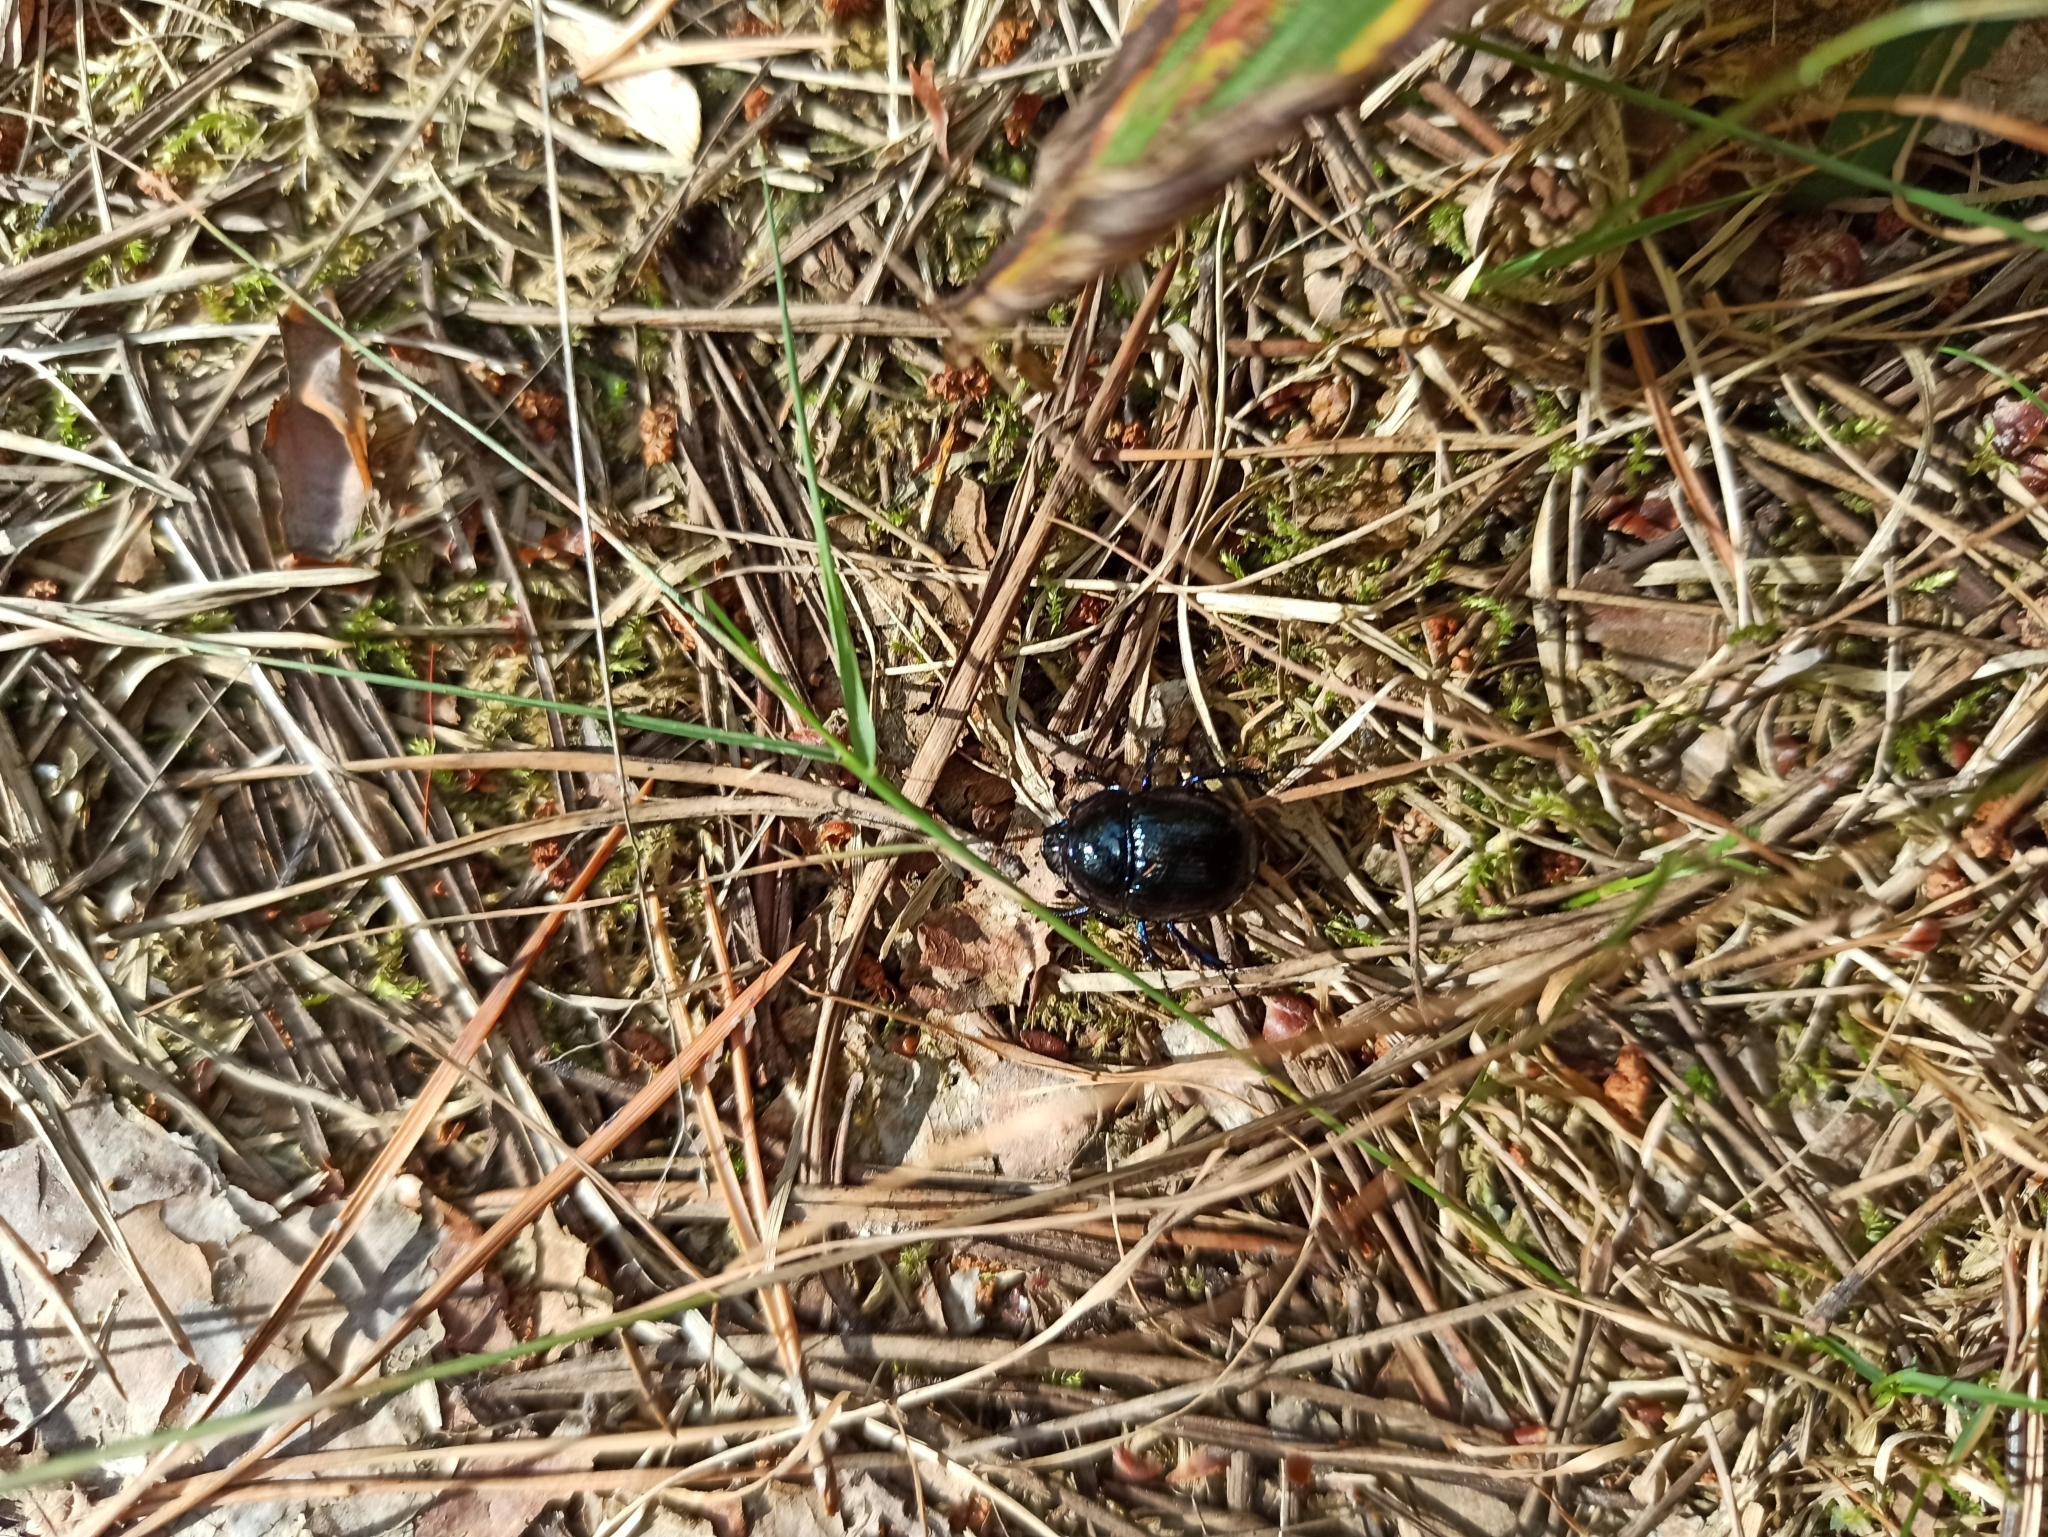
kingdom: Animalia
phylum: Arthropoda
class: Insecta
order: Coleoptera
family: Geotrupidae
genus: Anoplotrupes
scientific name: Anoplotrupes stercorosus
